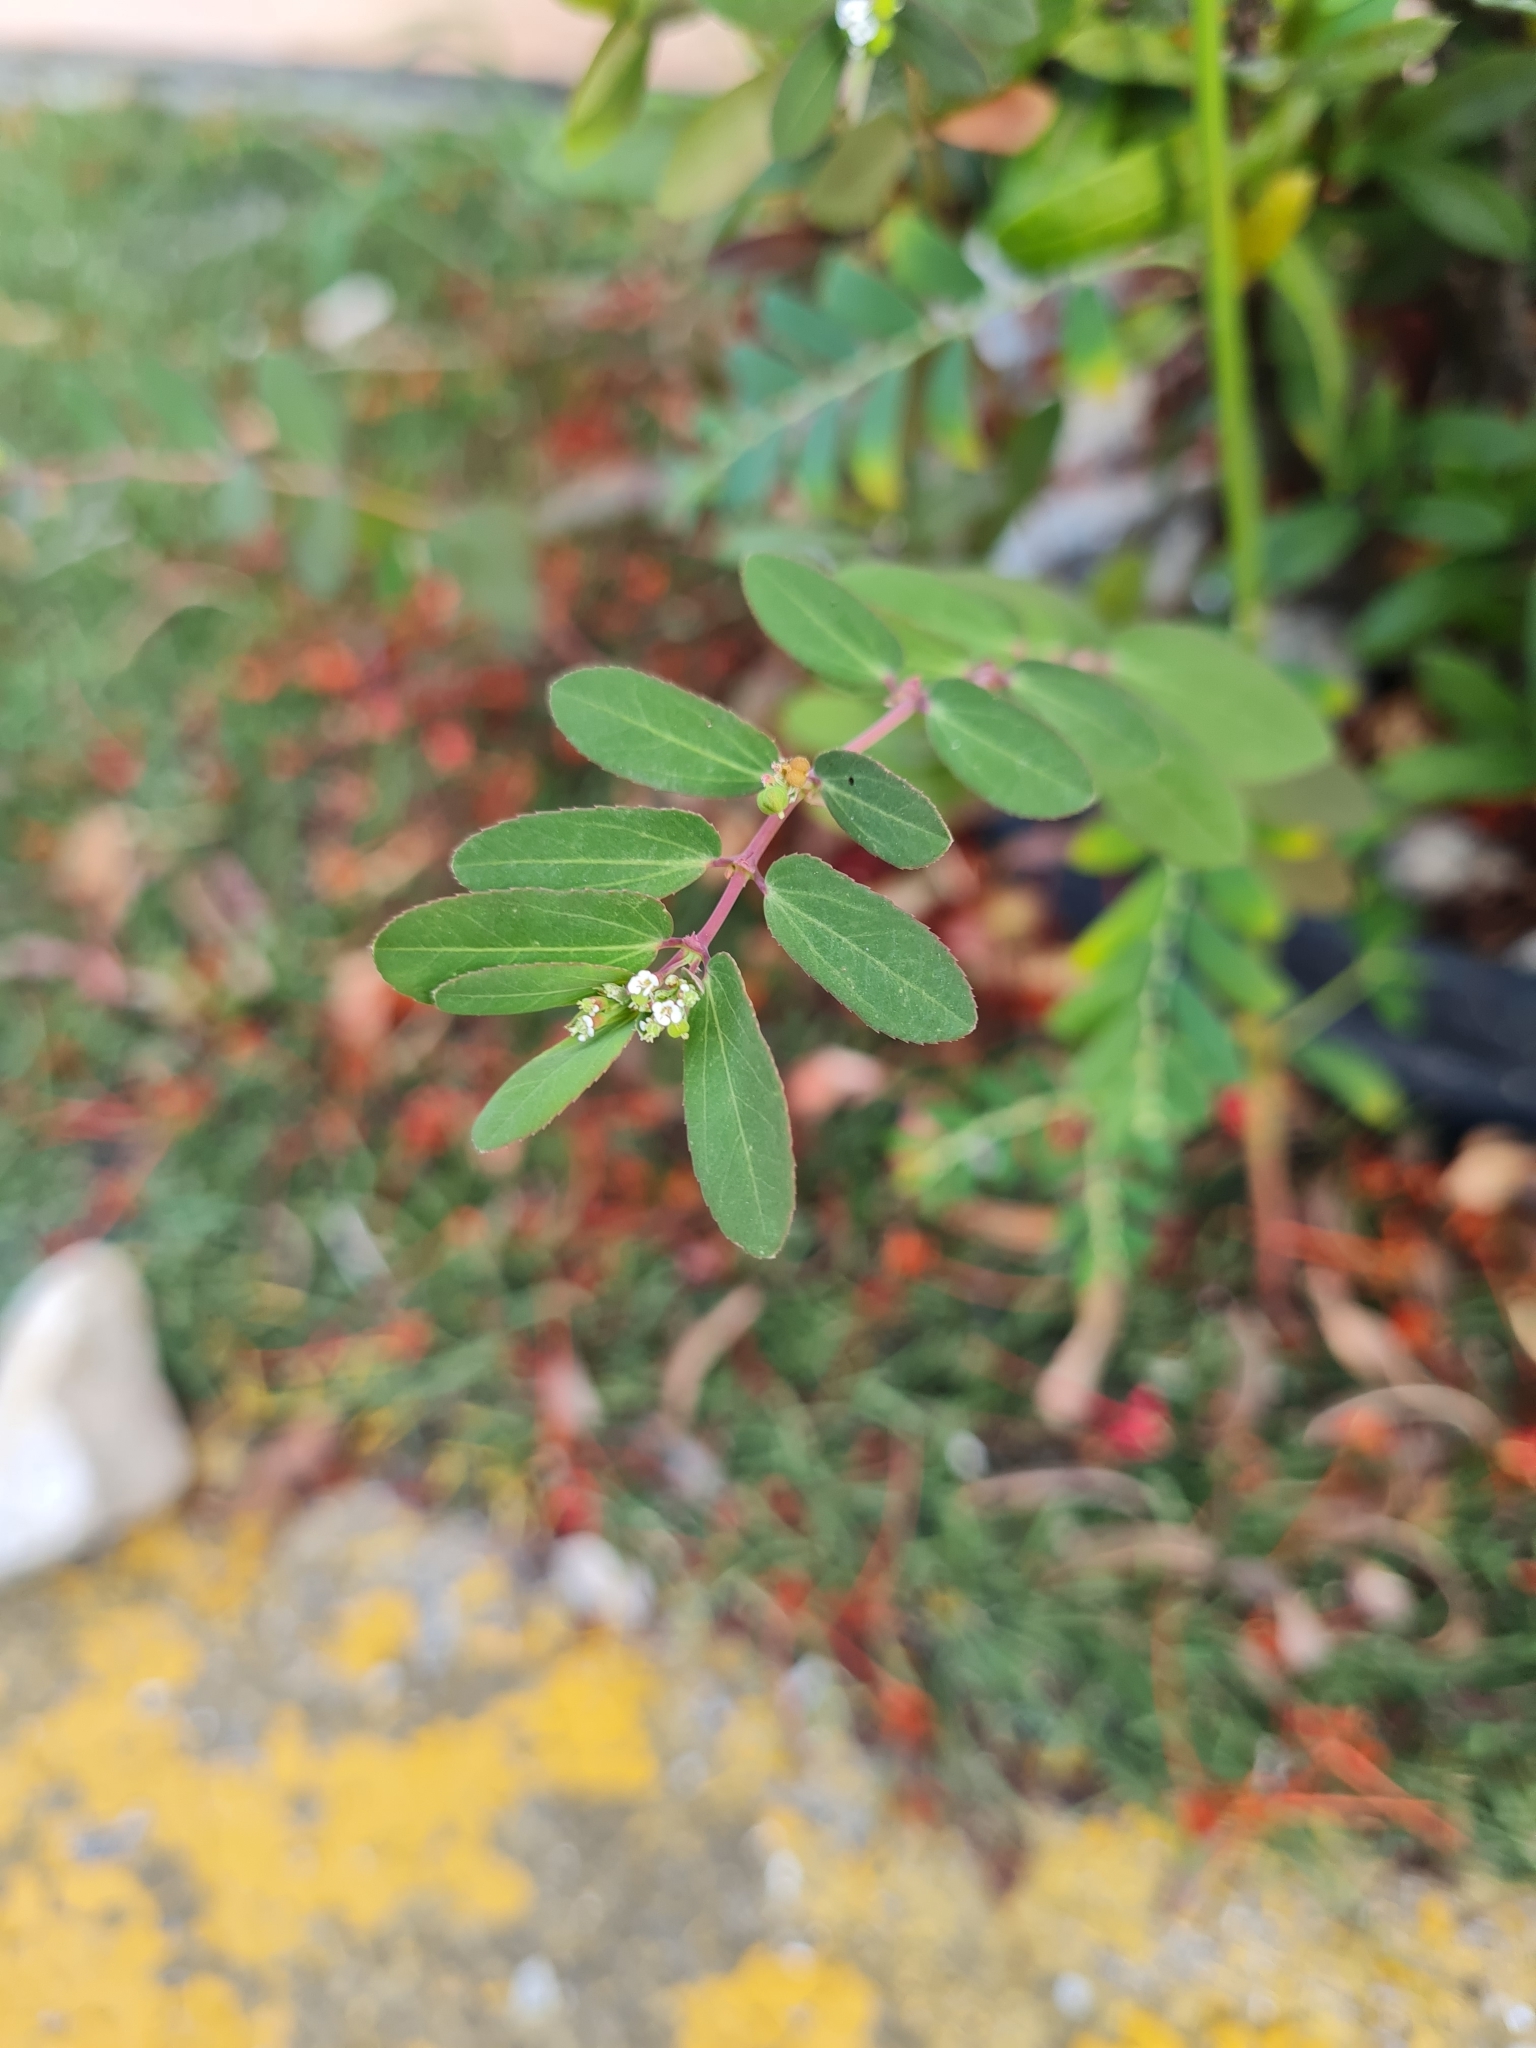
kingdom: Plantae
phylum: Tracheophyta
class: Magnoliopsida
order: Malpighiales
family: Euphorbiaceae
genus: Euphorbia
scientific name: Euphorbia hypericifolia
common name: Graceful sandmat
